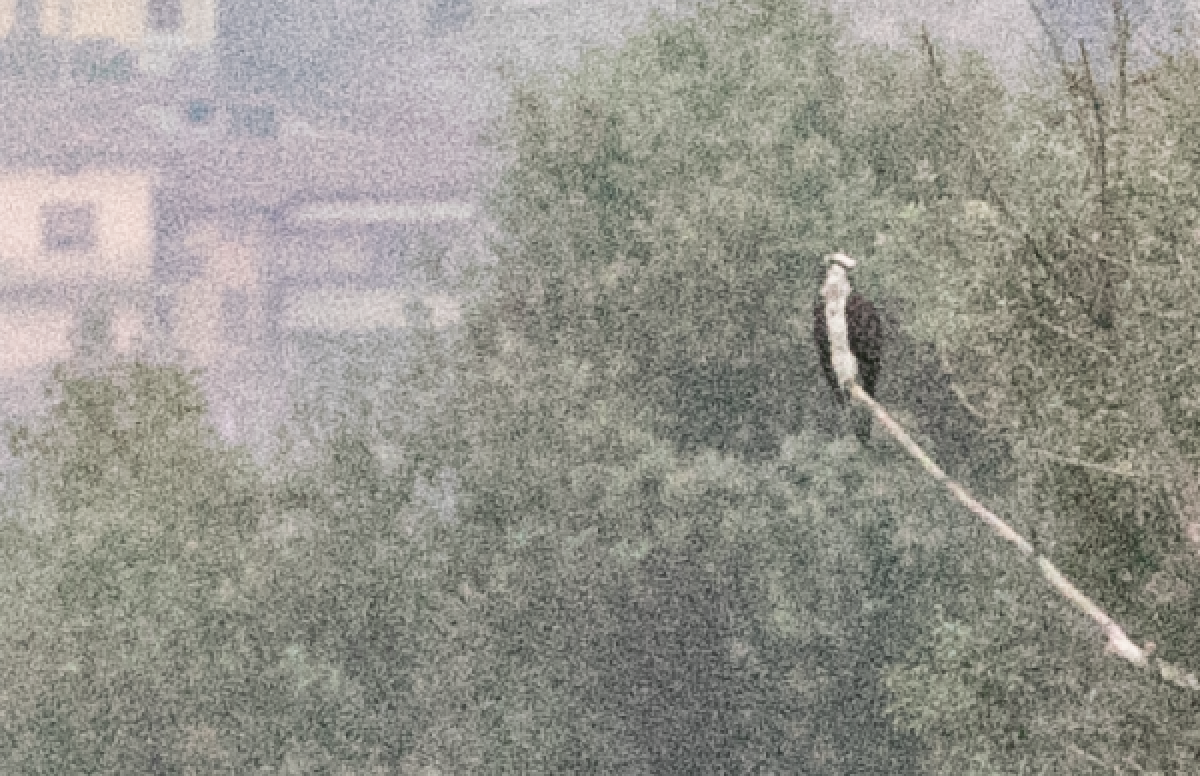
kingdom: Animalia
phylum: Chordata
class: Aves
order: Accipitriformes
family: Pandionidae
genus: Pandion
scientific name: Pandion haliaetus
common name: Osprey
